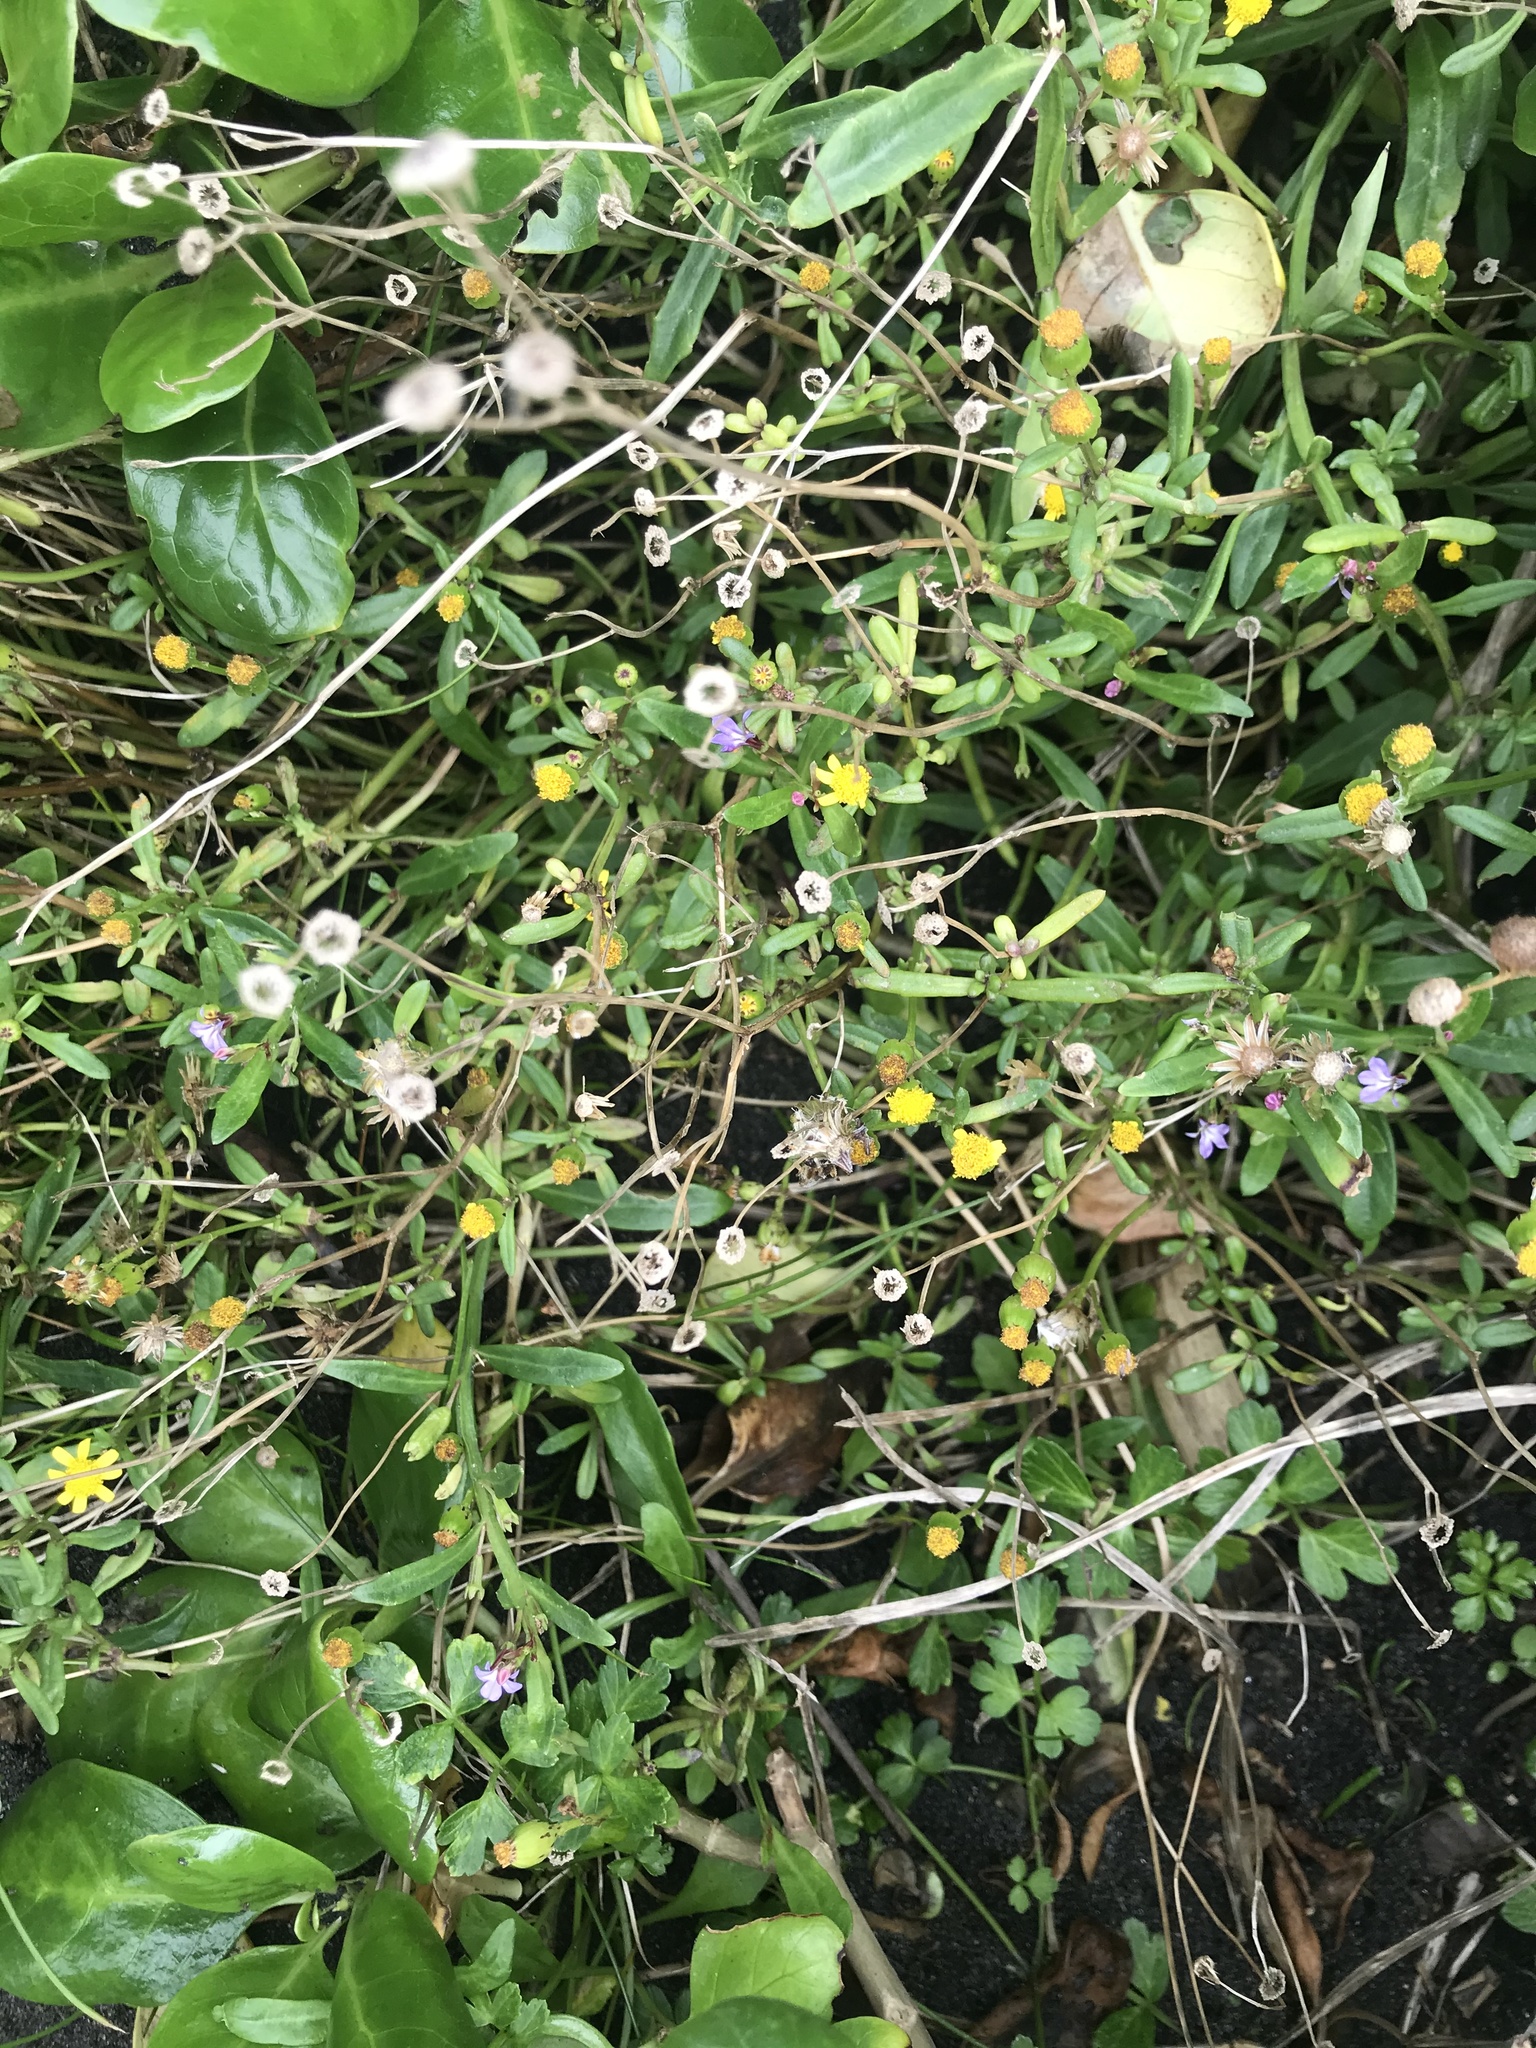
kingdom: Plantae
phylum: Tracheophyta
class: Magnoliopsida
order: Asterales
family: Asteraceae
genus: Senecio
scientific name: Senecio skirrhodon
